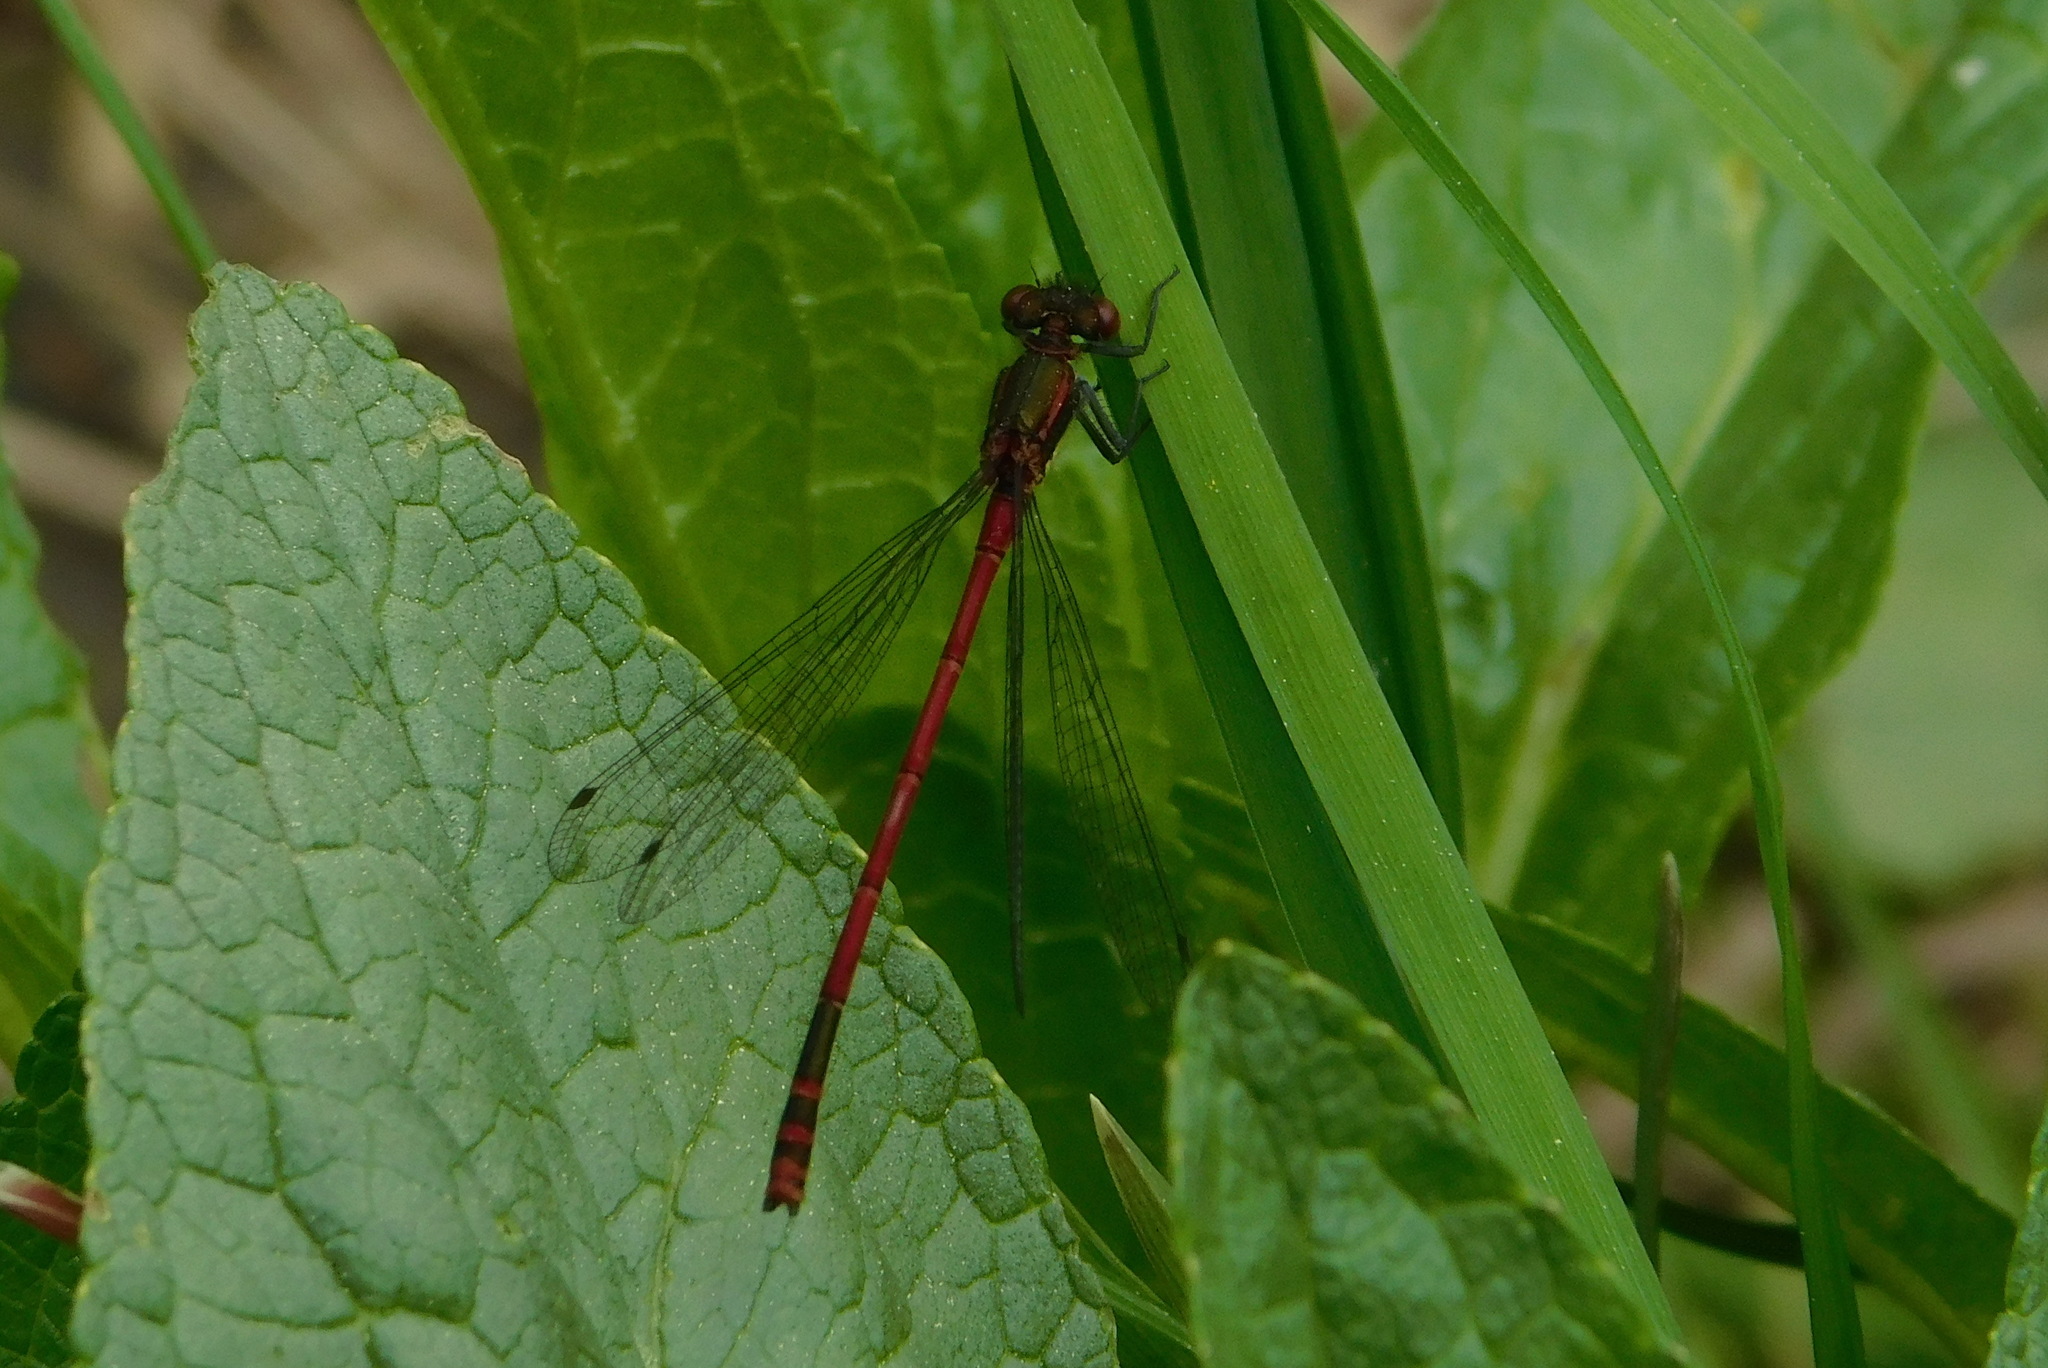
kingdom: Animalia
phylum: Arthropoda
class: Insecta
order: Odonata
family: Coenagrionidae
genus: Pyrrhosoma
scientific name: Pyrrhosoma nymphula
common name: Large red damsel
